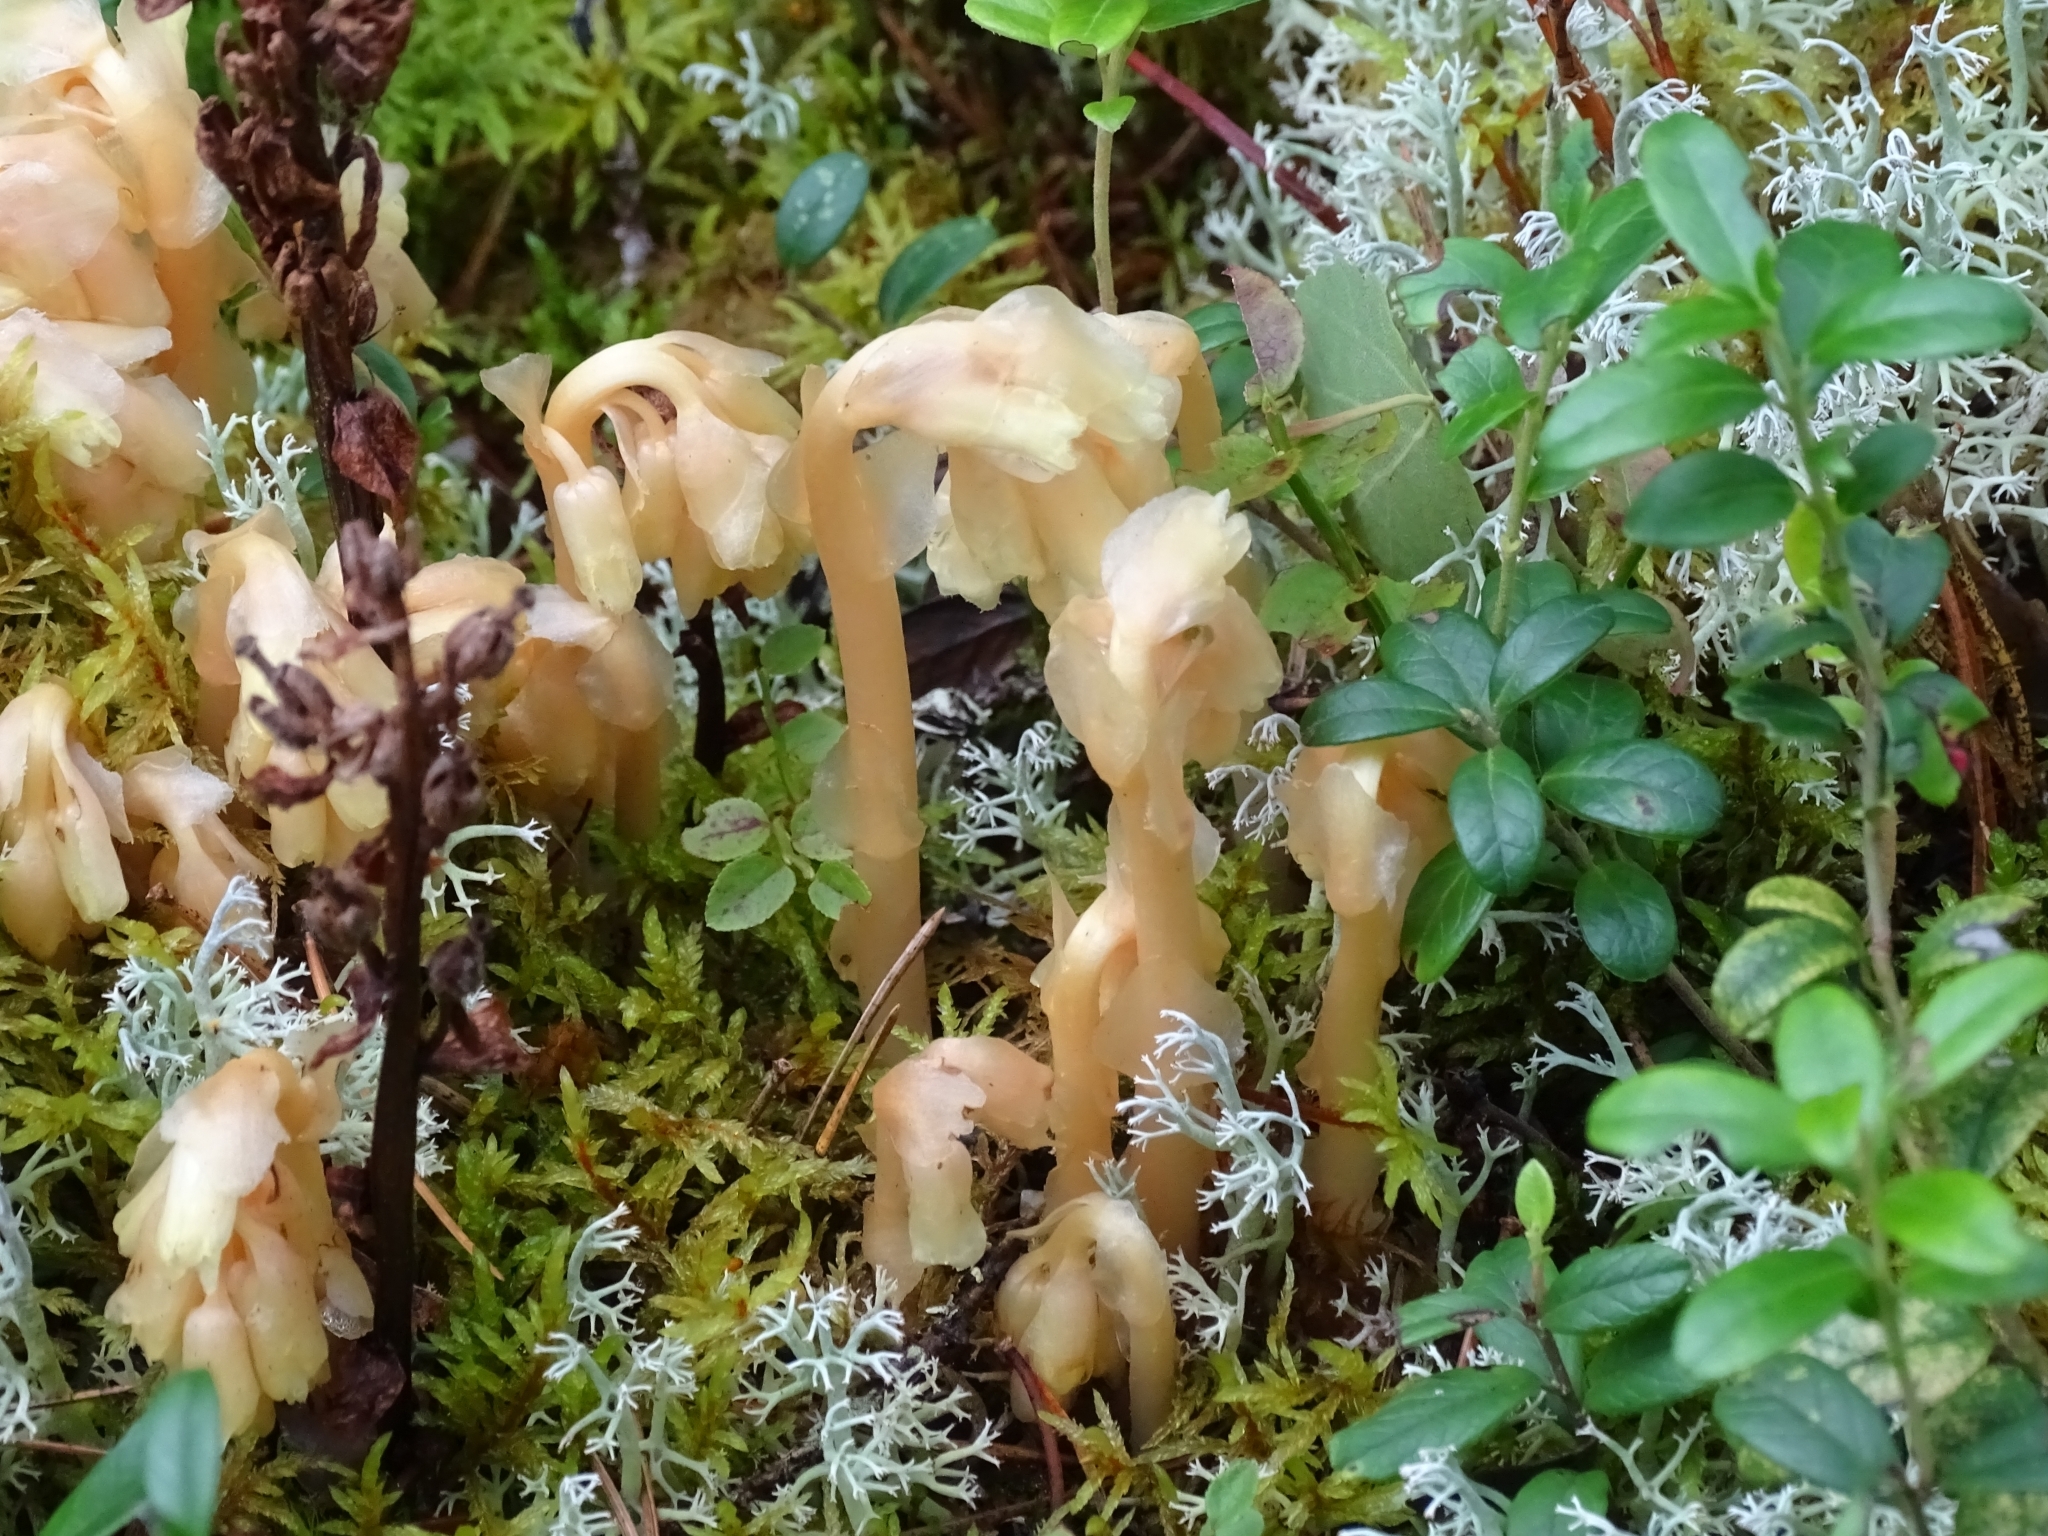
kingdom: Plantae
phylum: Tracheophyta
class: Magnoliopsida
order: Ericales
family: Ericaceae
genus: Hypopitys
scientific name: Hypopitys monotropa
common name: Yellow bird's-nest
